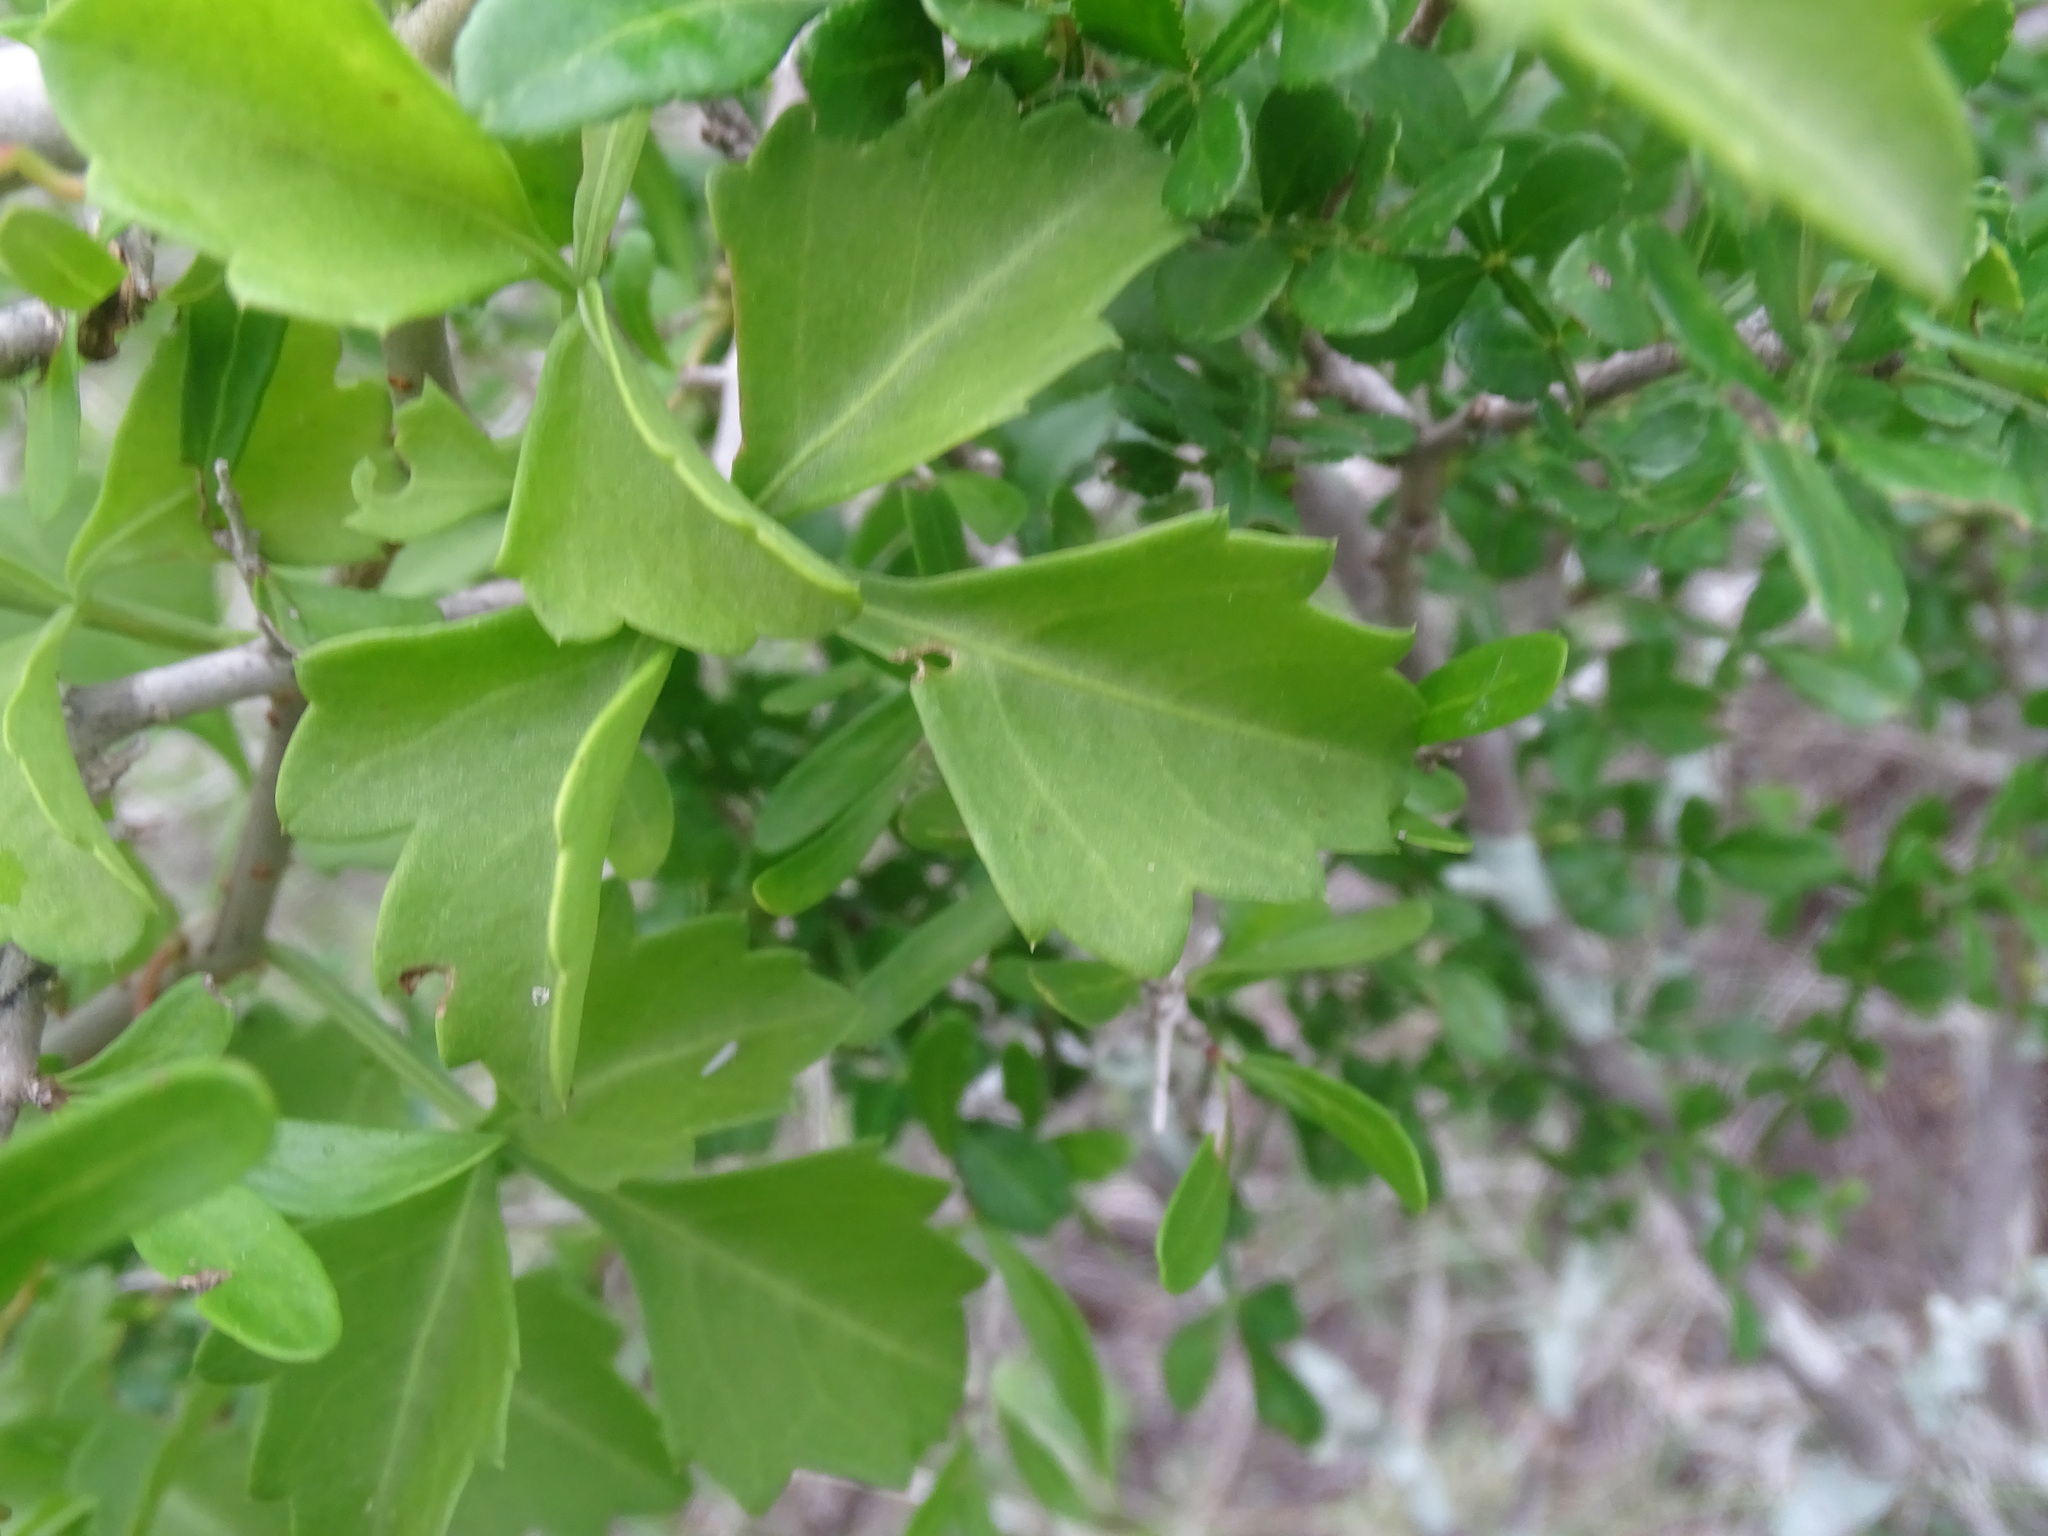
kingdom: Plantae
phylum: Tracheophyta
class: Magnoliopsida
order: Vitales
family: Vitaceae
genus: Cissus
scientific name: Cissus trifoliata
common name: Vine-sorrel
